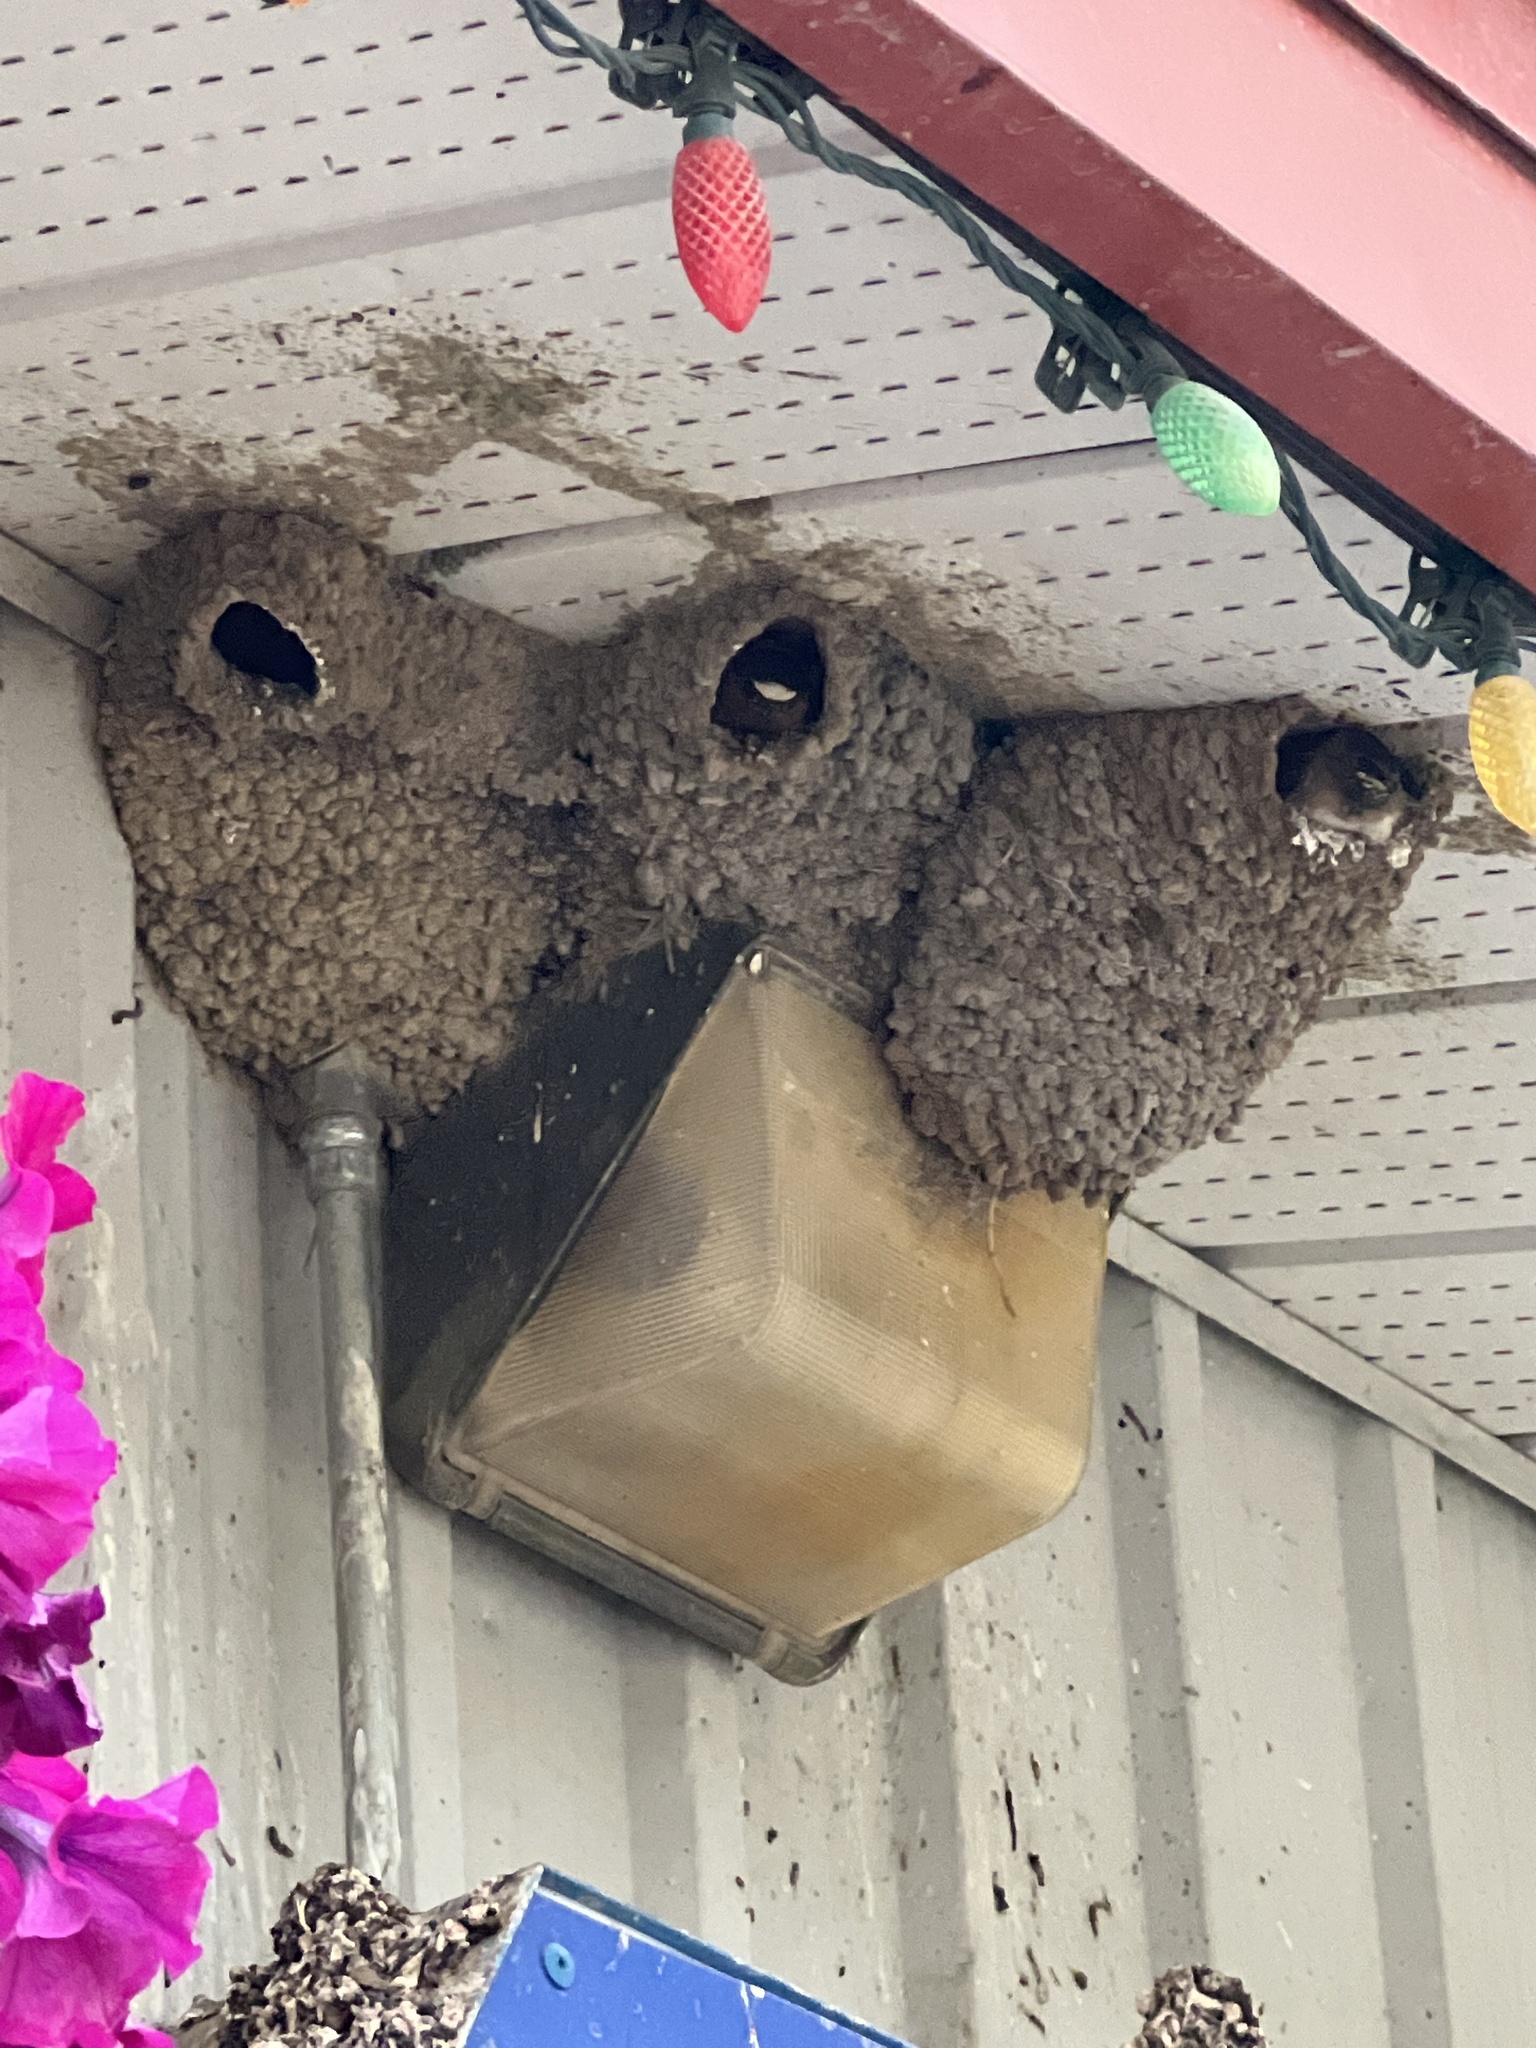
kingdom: Animalia
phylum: Chordata
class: Aves
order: Passeriformes
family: Hirundinidae
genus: Petrochelidon
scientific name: Petrochelidon pyrrhonota
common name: American cliff swallow
